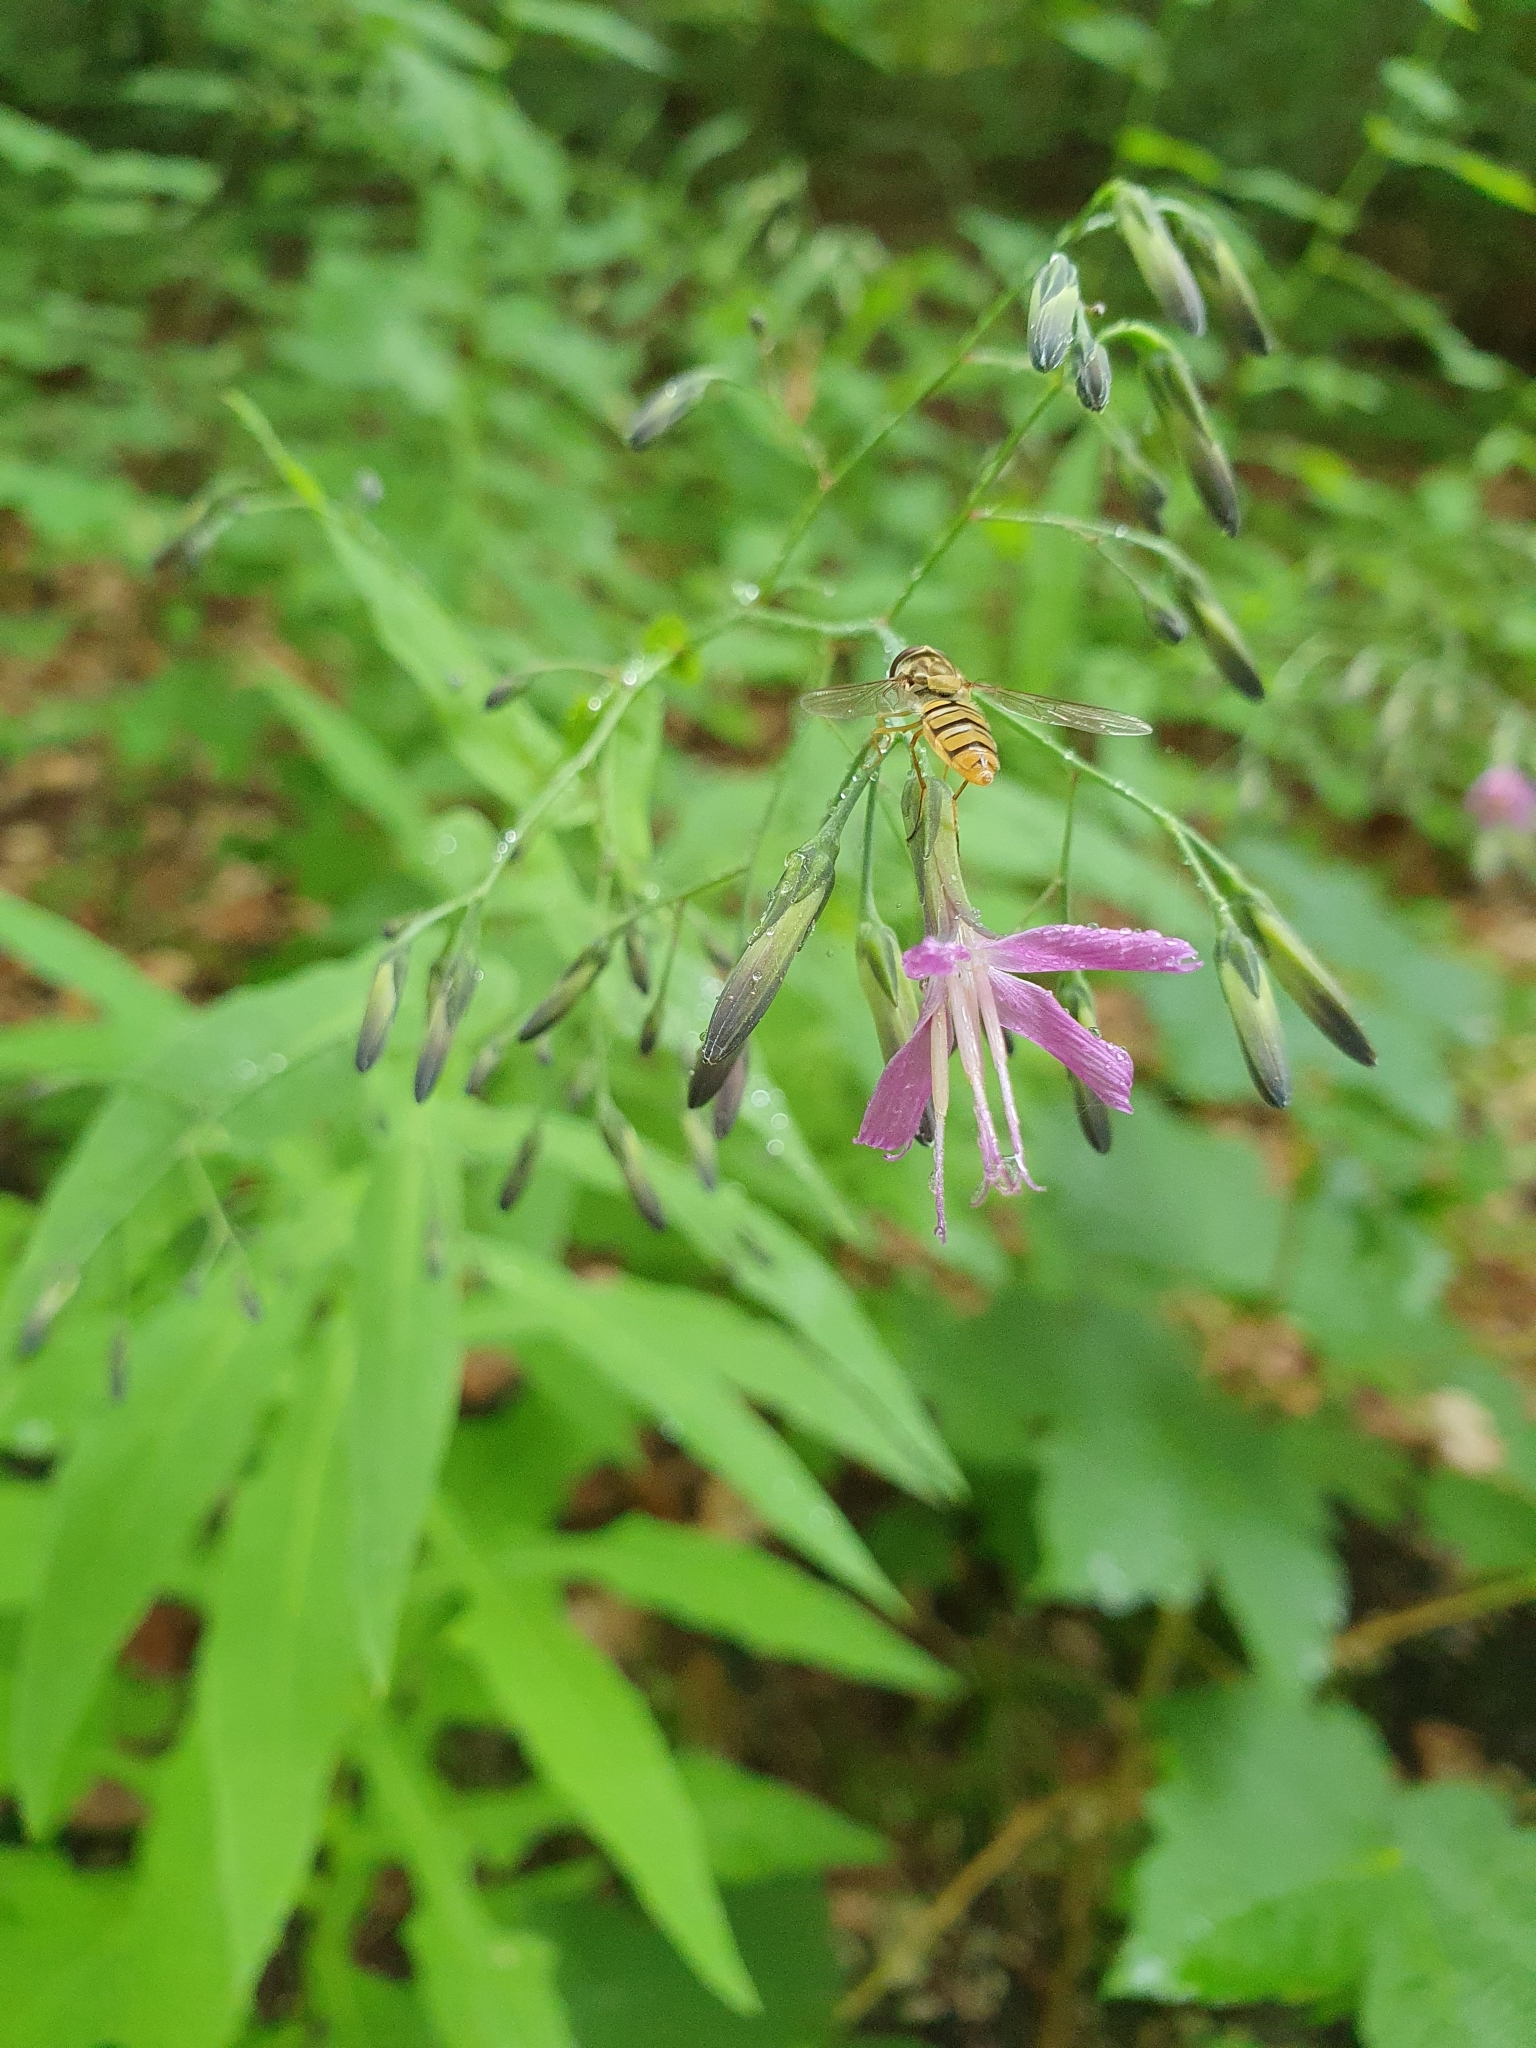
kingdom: Plantae
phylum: Tracheophyta
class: Magnoliopsida
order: Asterales
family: Asteraceae
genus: Prenanthes
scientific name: Prenanthes purpurea
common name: Purple lettuce
